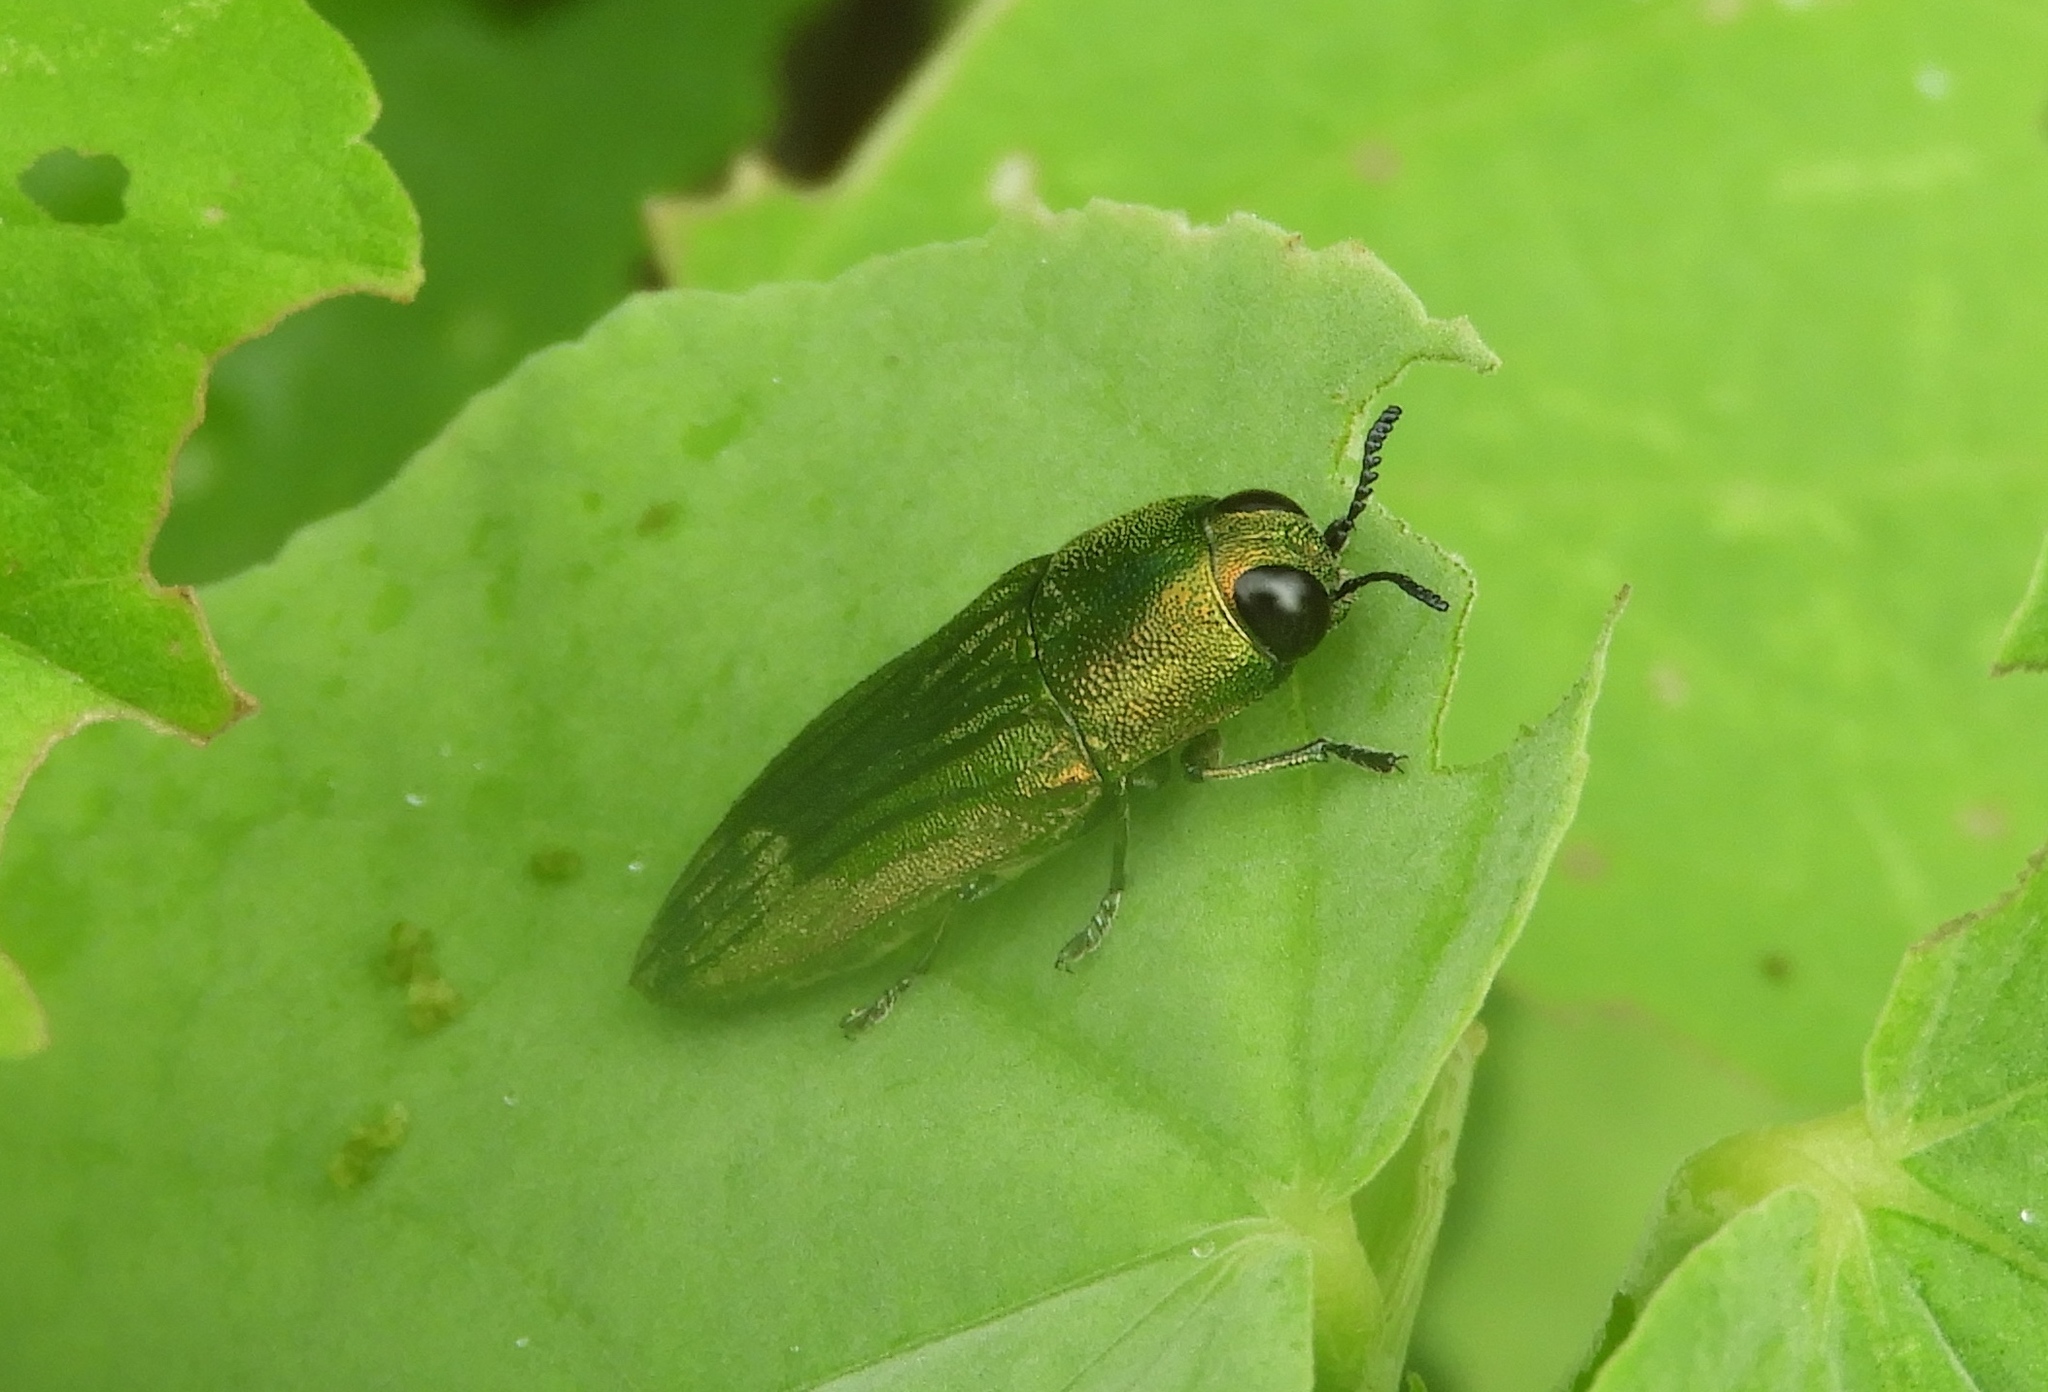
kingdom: Animalia
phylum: Arthropoda
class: Insecta
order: Coleoptera
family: Buprestidae
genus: Agaeocera
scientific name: Agaeocera scintillans
